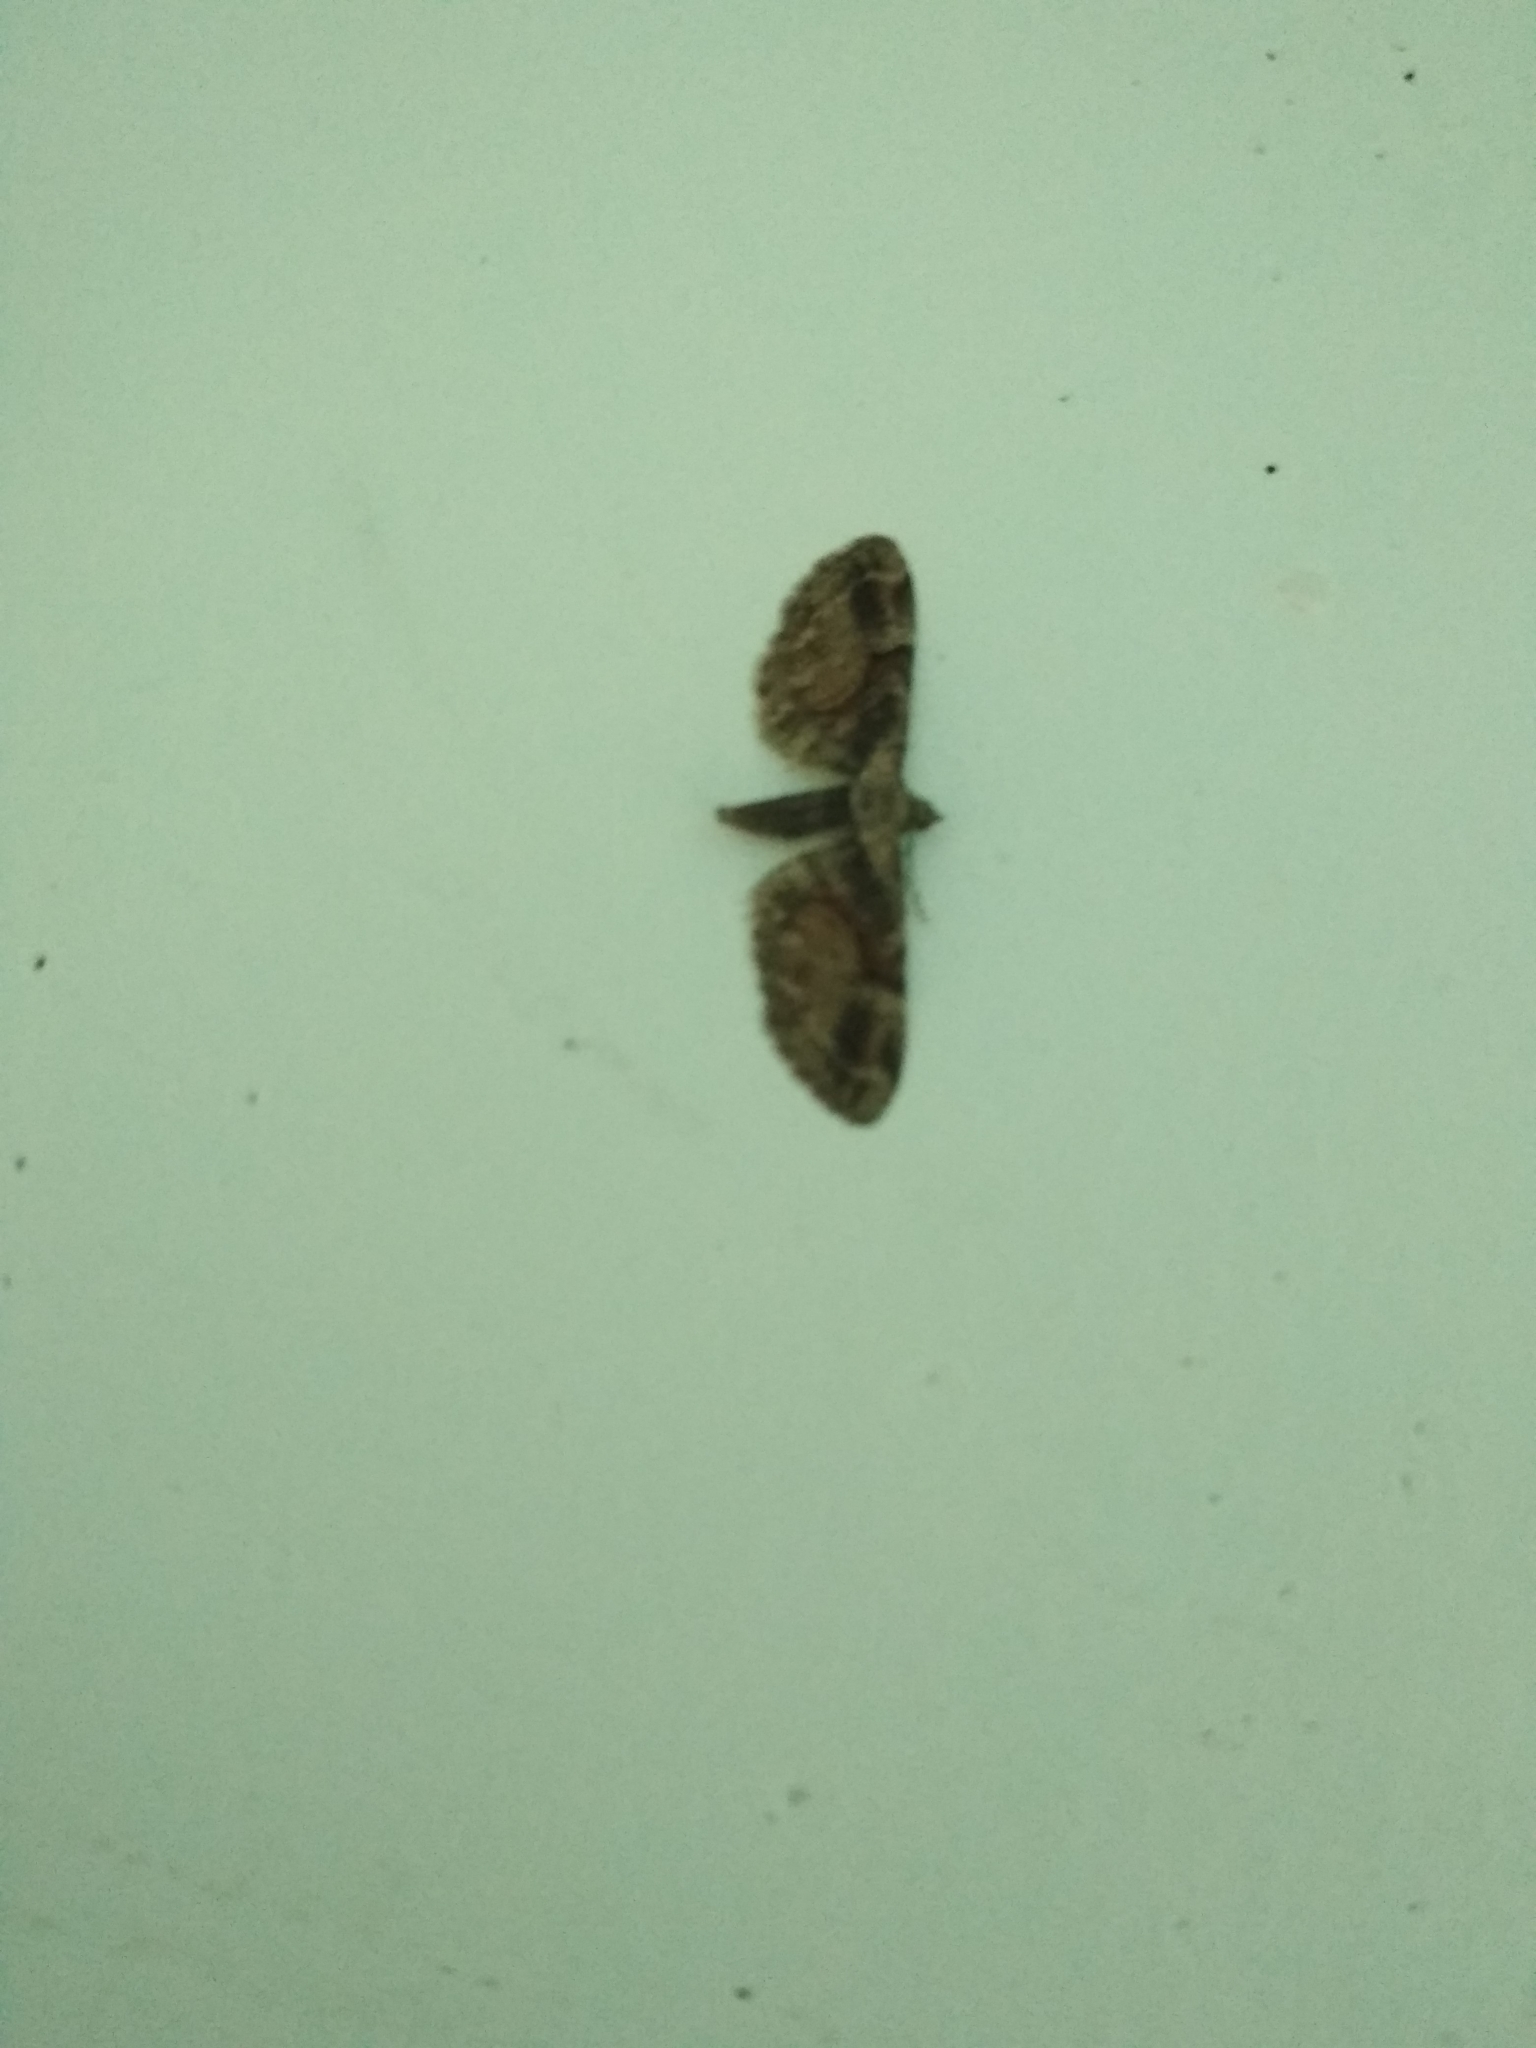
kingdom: Animalia
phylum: Arthropoda
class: Insecta
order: Lepidoptera
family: Geometridae
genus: Eupithecia
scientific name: Eupithecia sinuosaria
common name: Goosefoot pug
